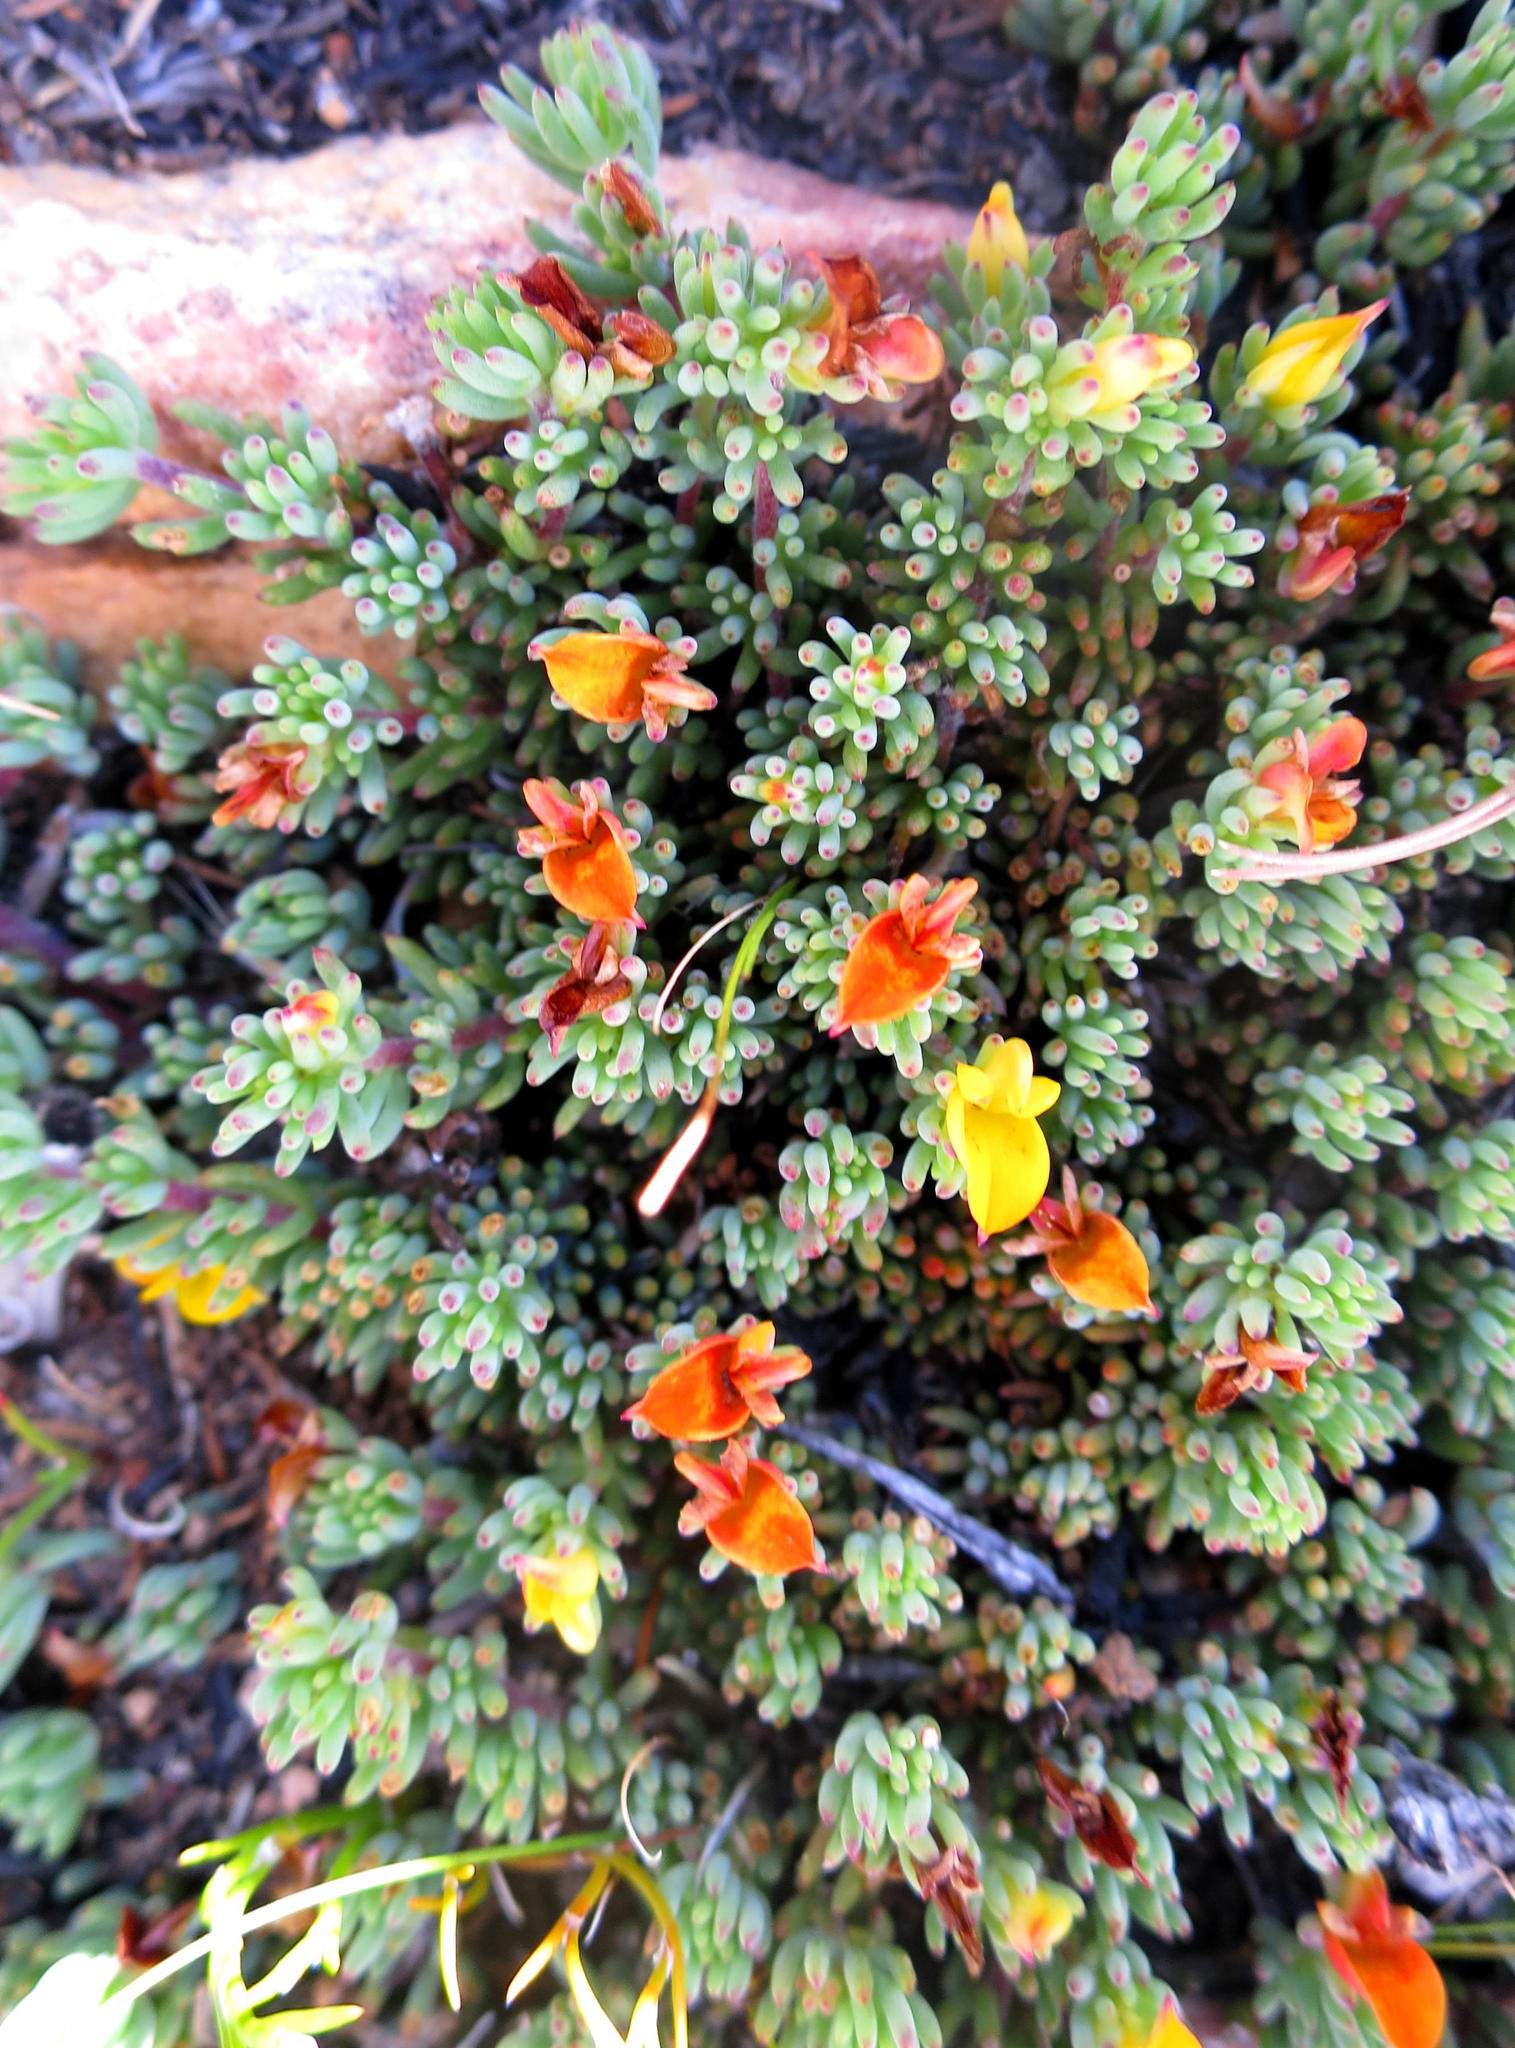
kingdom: Plantae
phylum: Tracheophyta
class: Magnoliopsida
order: Fabales
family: Fabaceae
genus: Aspalathus
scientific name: Aspalathus juniperina
